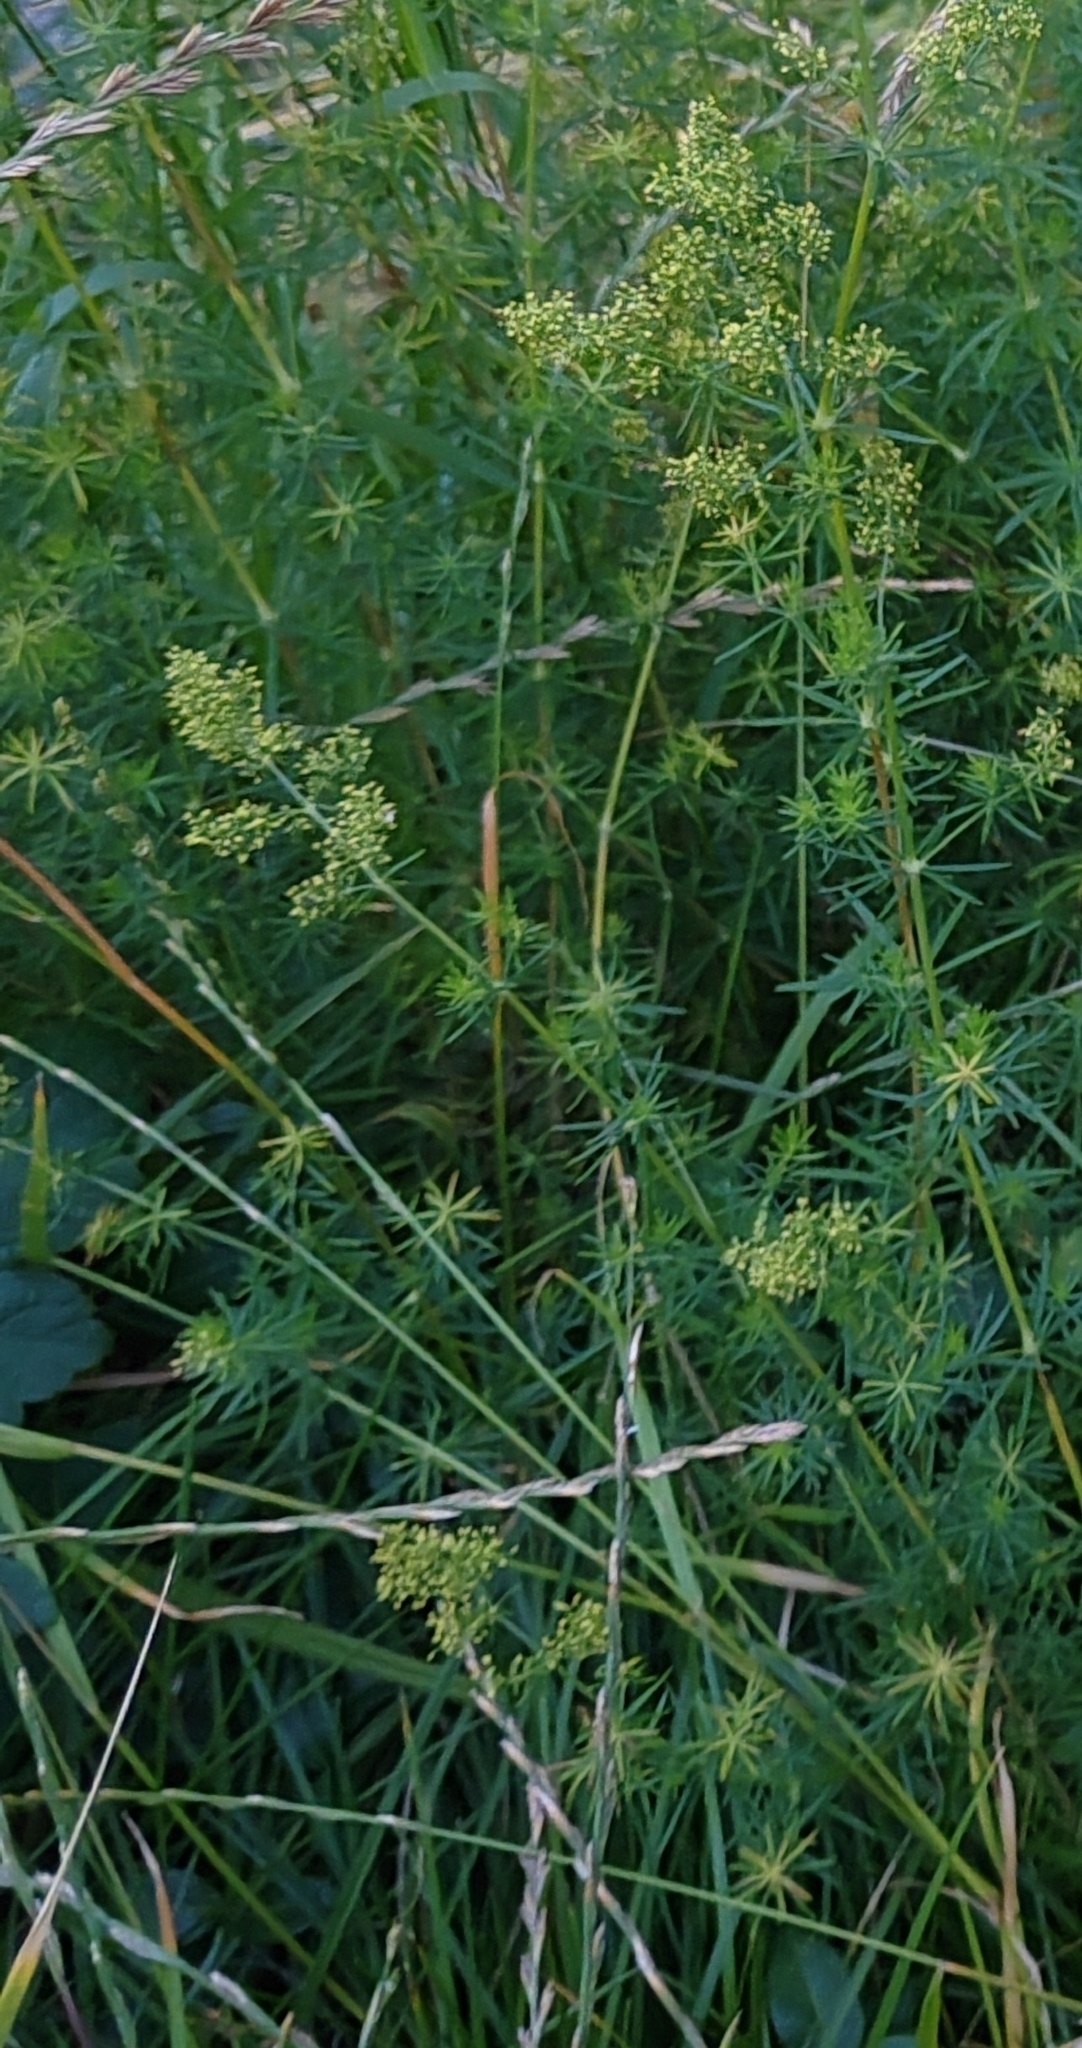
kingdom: Plantae
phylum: Tracheophyta
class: Magnoliopsida
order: Gentianales
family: Rubiaceae
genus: Galium
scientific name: Galium verum
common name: Lady's bedstraw
